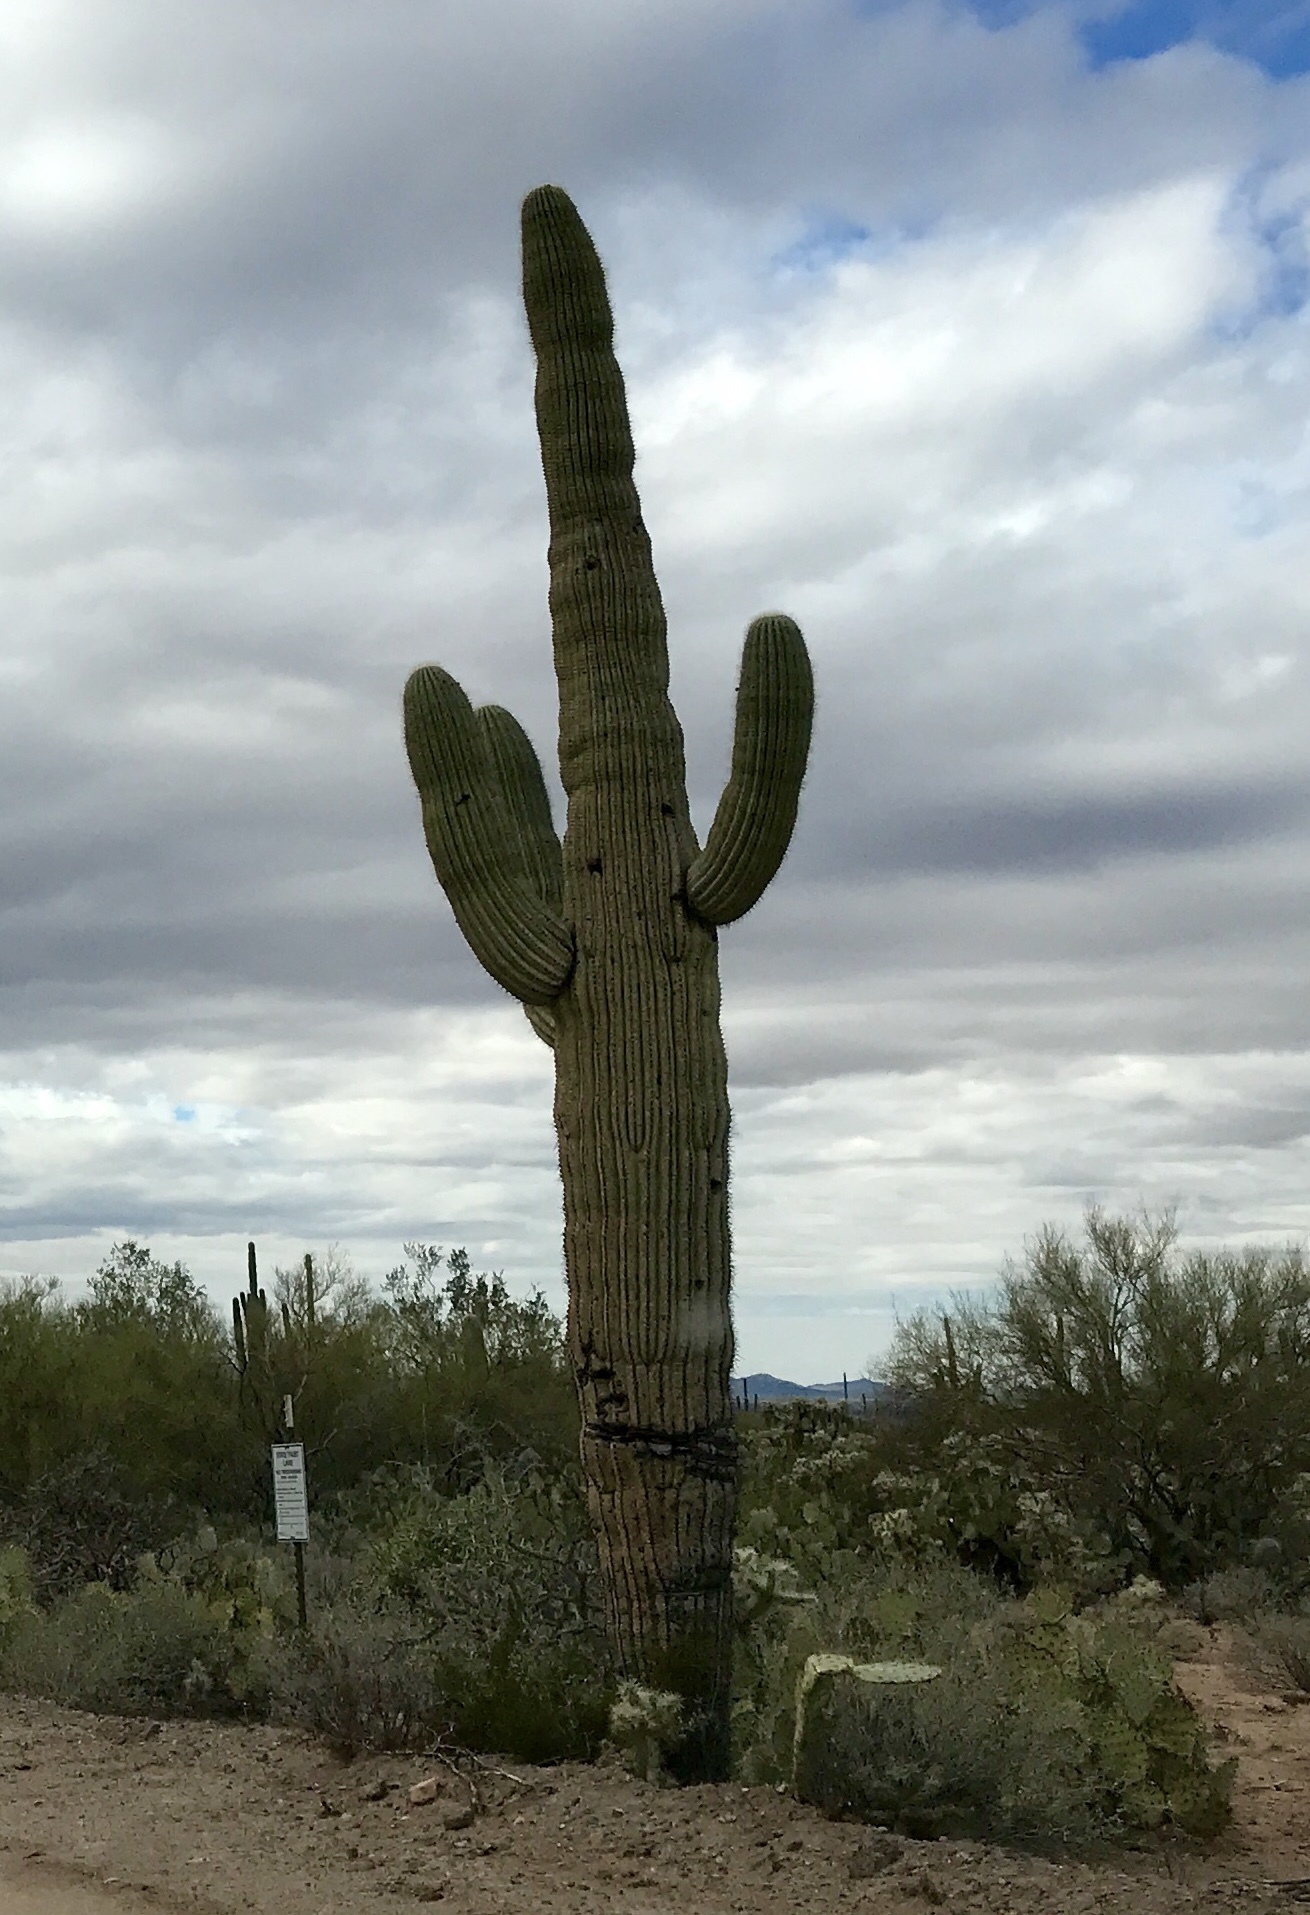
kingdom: Plantae
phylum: Tracheophyta
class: Magnoliopsida
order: Caryophyllales
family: Cactaceae
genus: Carnegiea
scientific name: Carnegiea gigantea
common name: Saguaro
